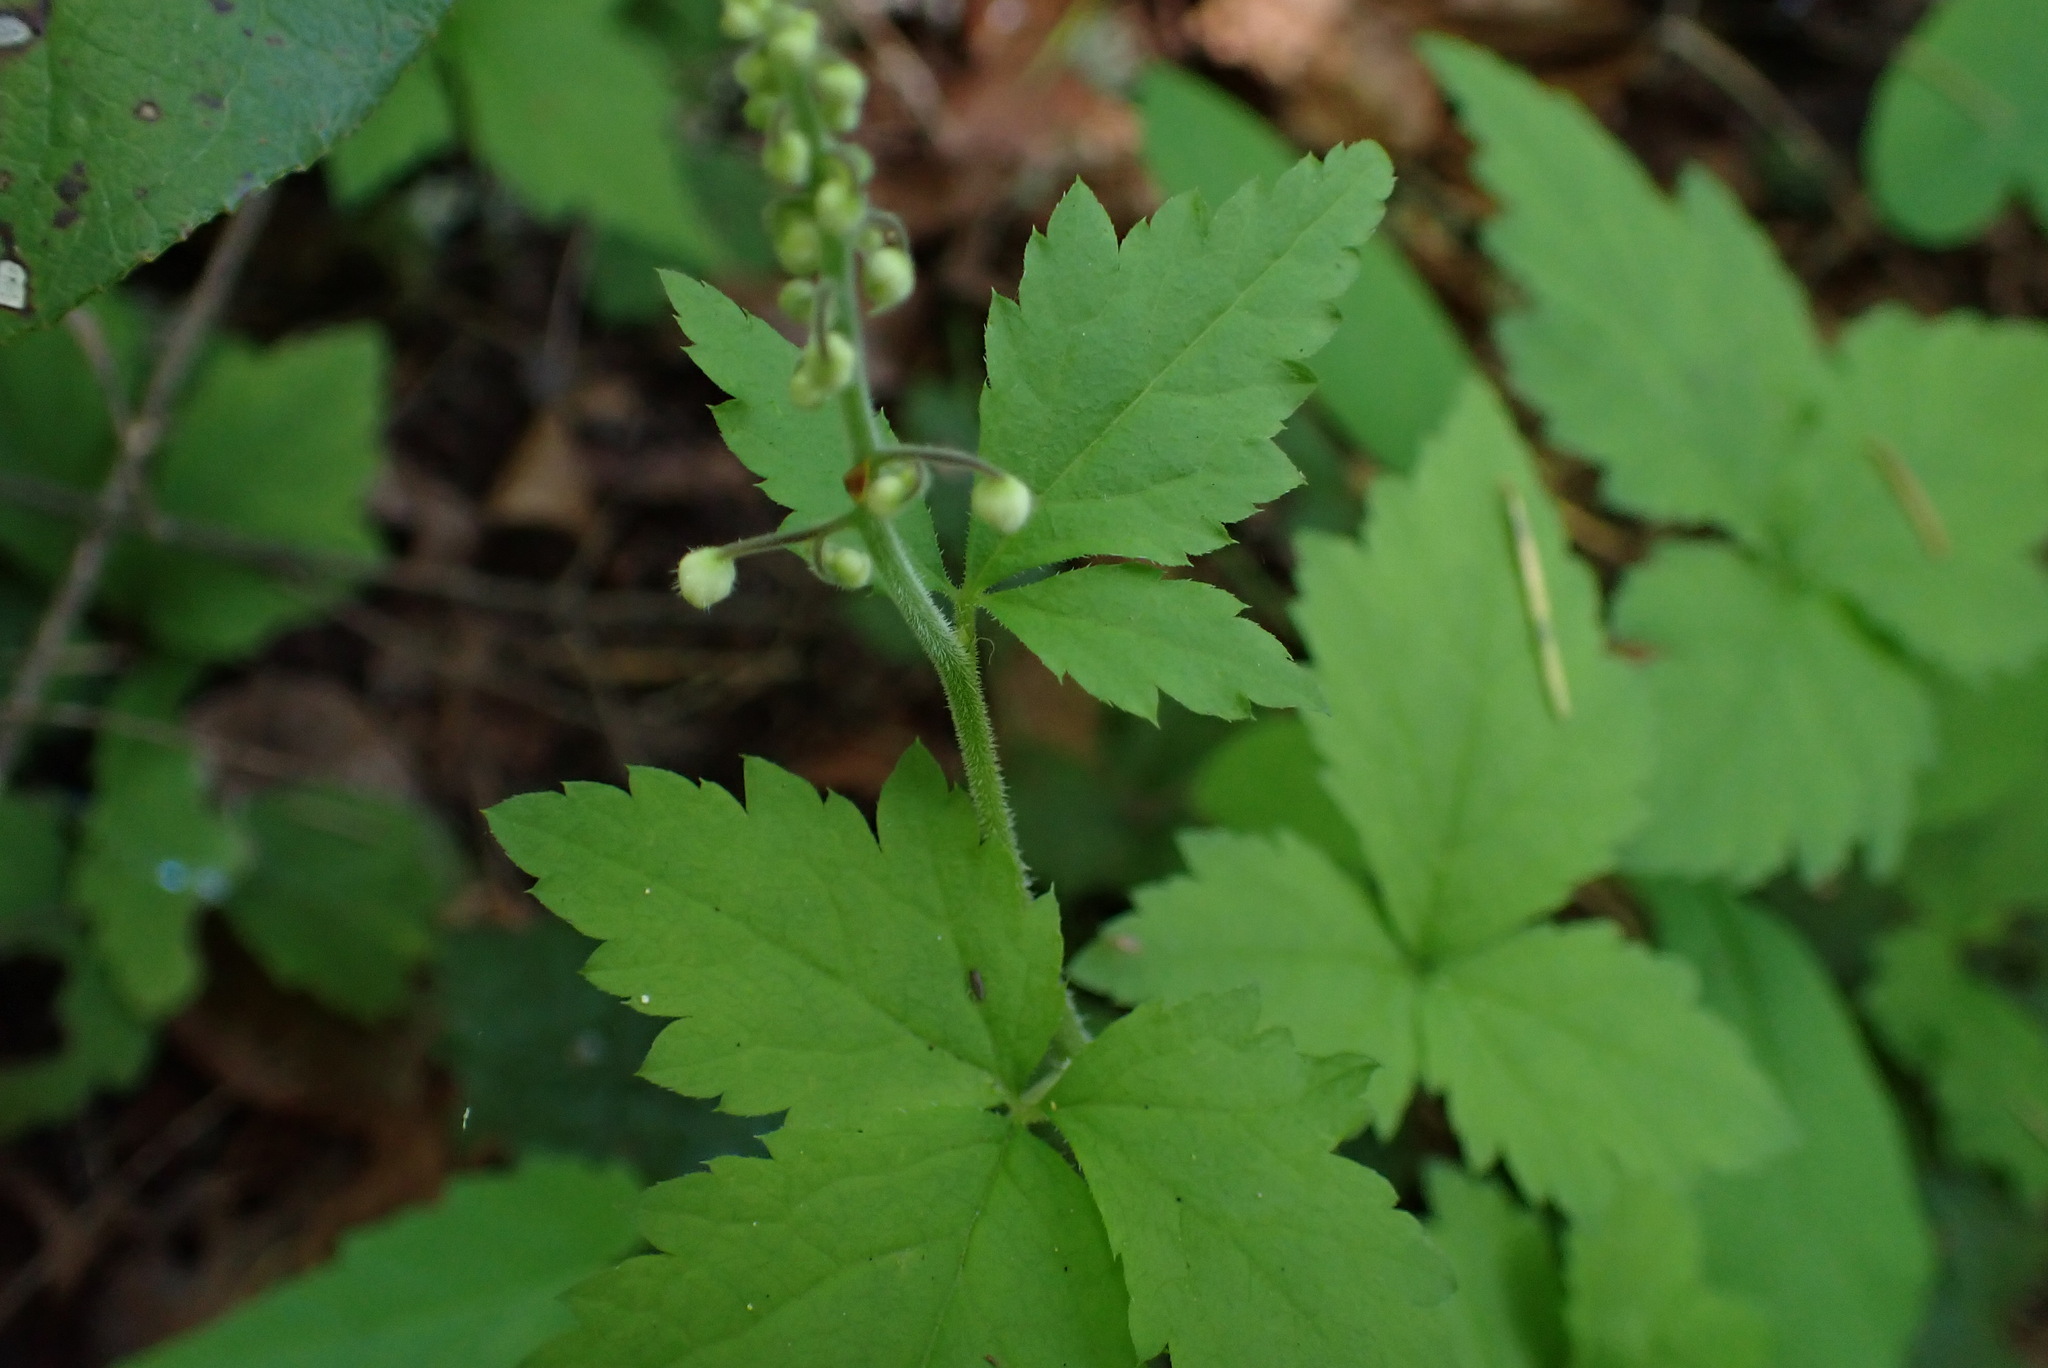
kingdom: Plantae
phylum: Tracheophyta
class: Magnoliopsida
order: Saxifragales
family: Saxifragaceae
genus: Tiarella
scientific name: Tiarella trifoliata
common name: Sugar-scoop
